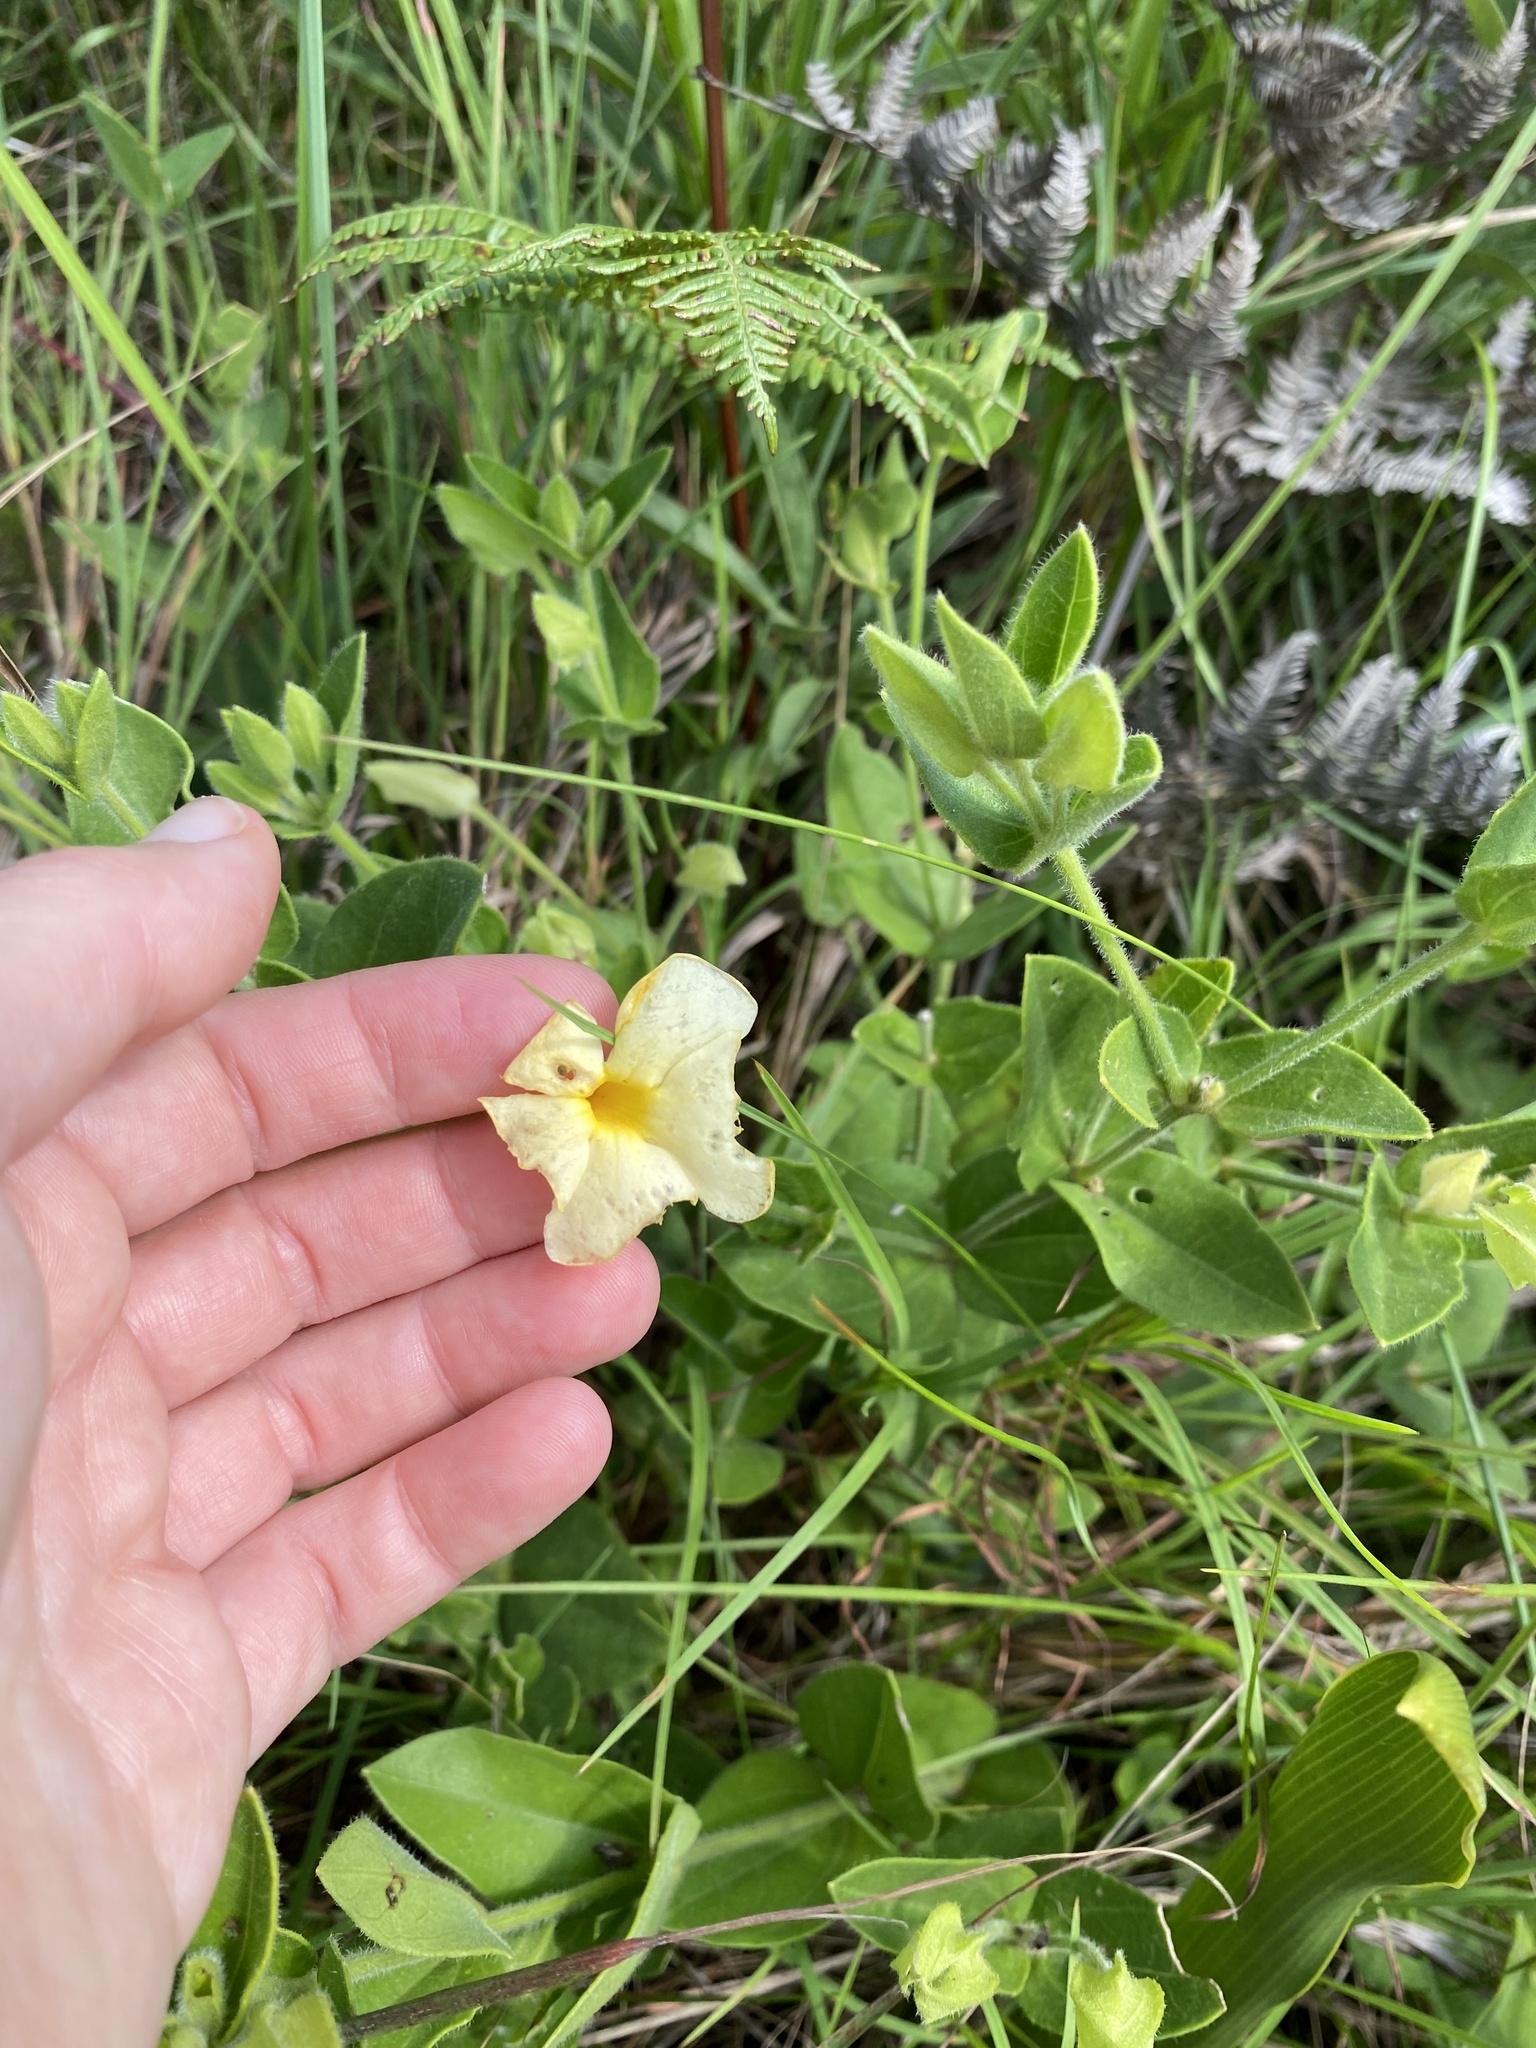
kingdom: Plantae
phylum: Tracheophyta
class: Magnoliopsida
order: Lamiales
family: Acanthaceae
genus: Thunbergia
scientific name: Thunbergia atriplicifolia
